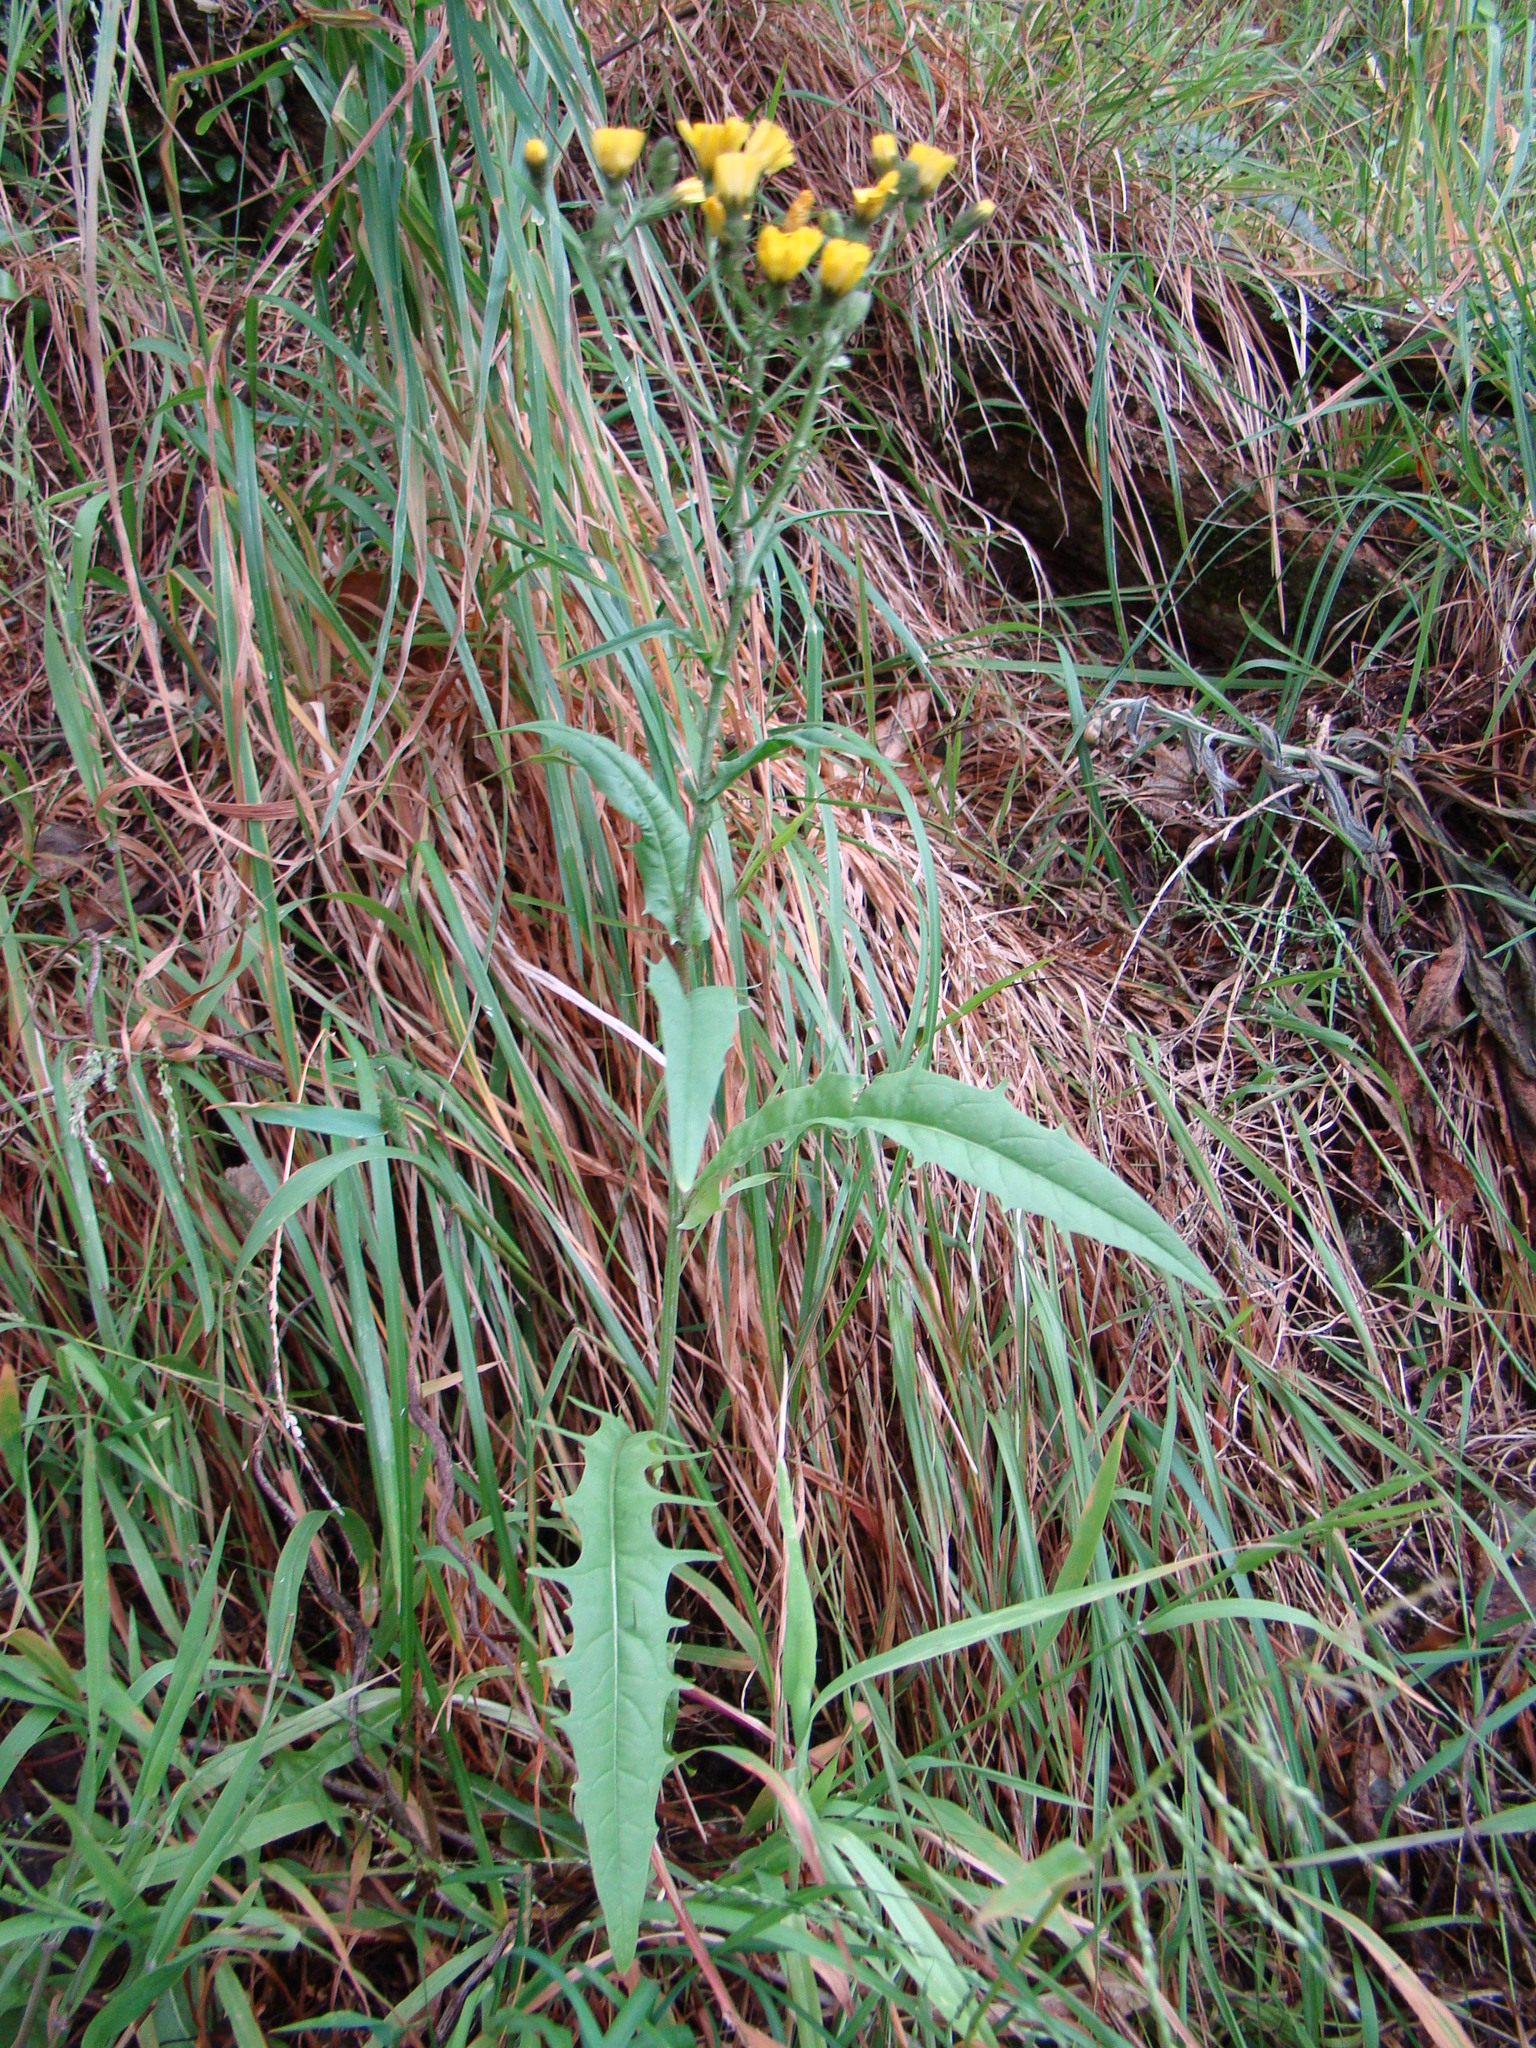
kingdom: Plantae
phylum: Tracheophyta
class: Magnoliopsida
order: Asterales
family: Asteraceae
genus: Crepis
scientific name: Crepis capillaris
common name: Smooth hawksbeard
